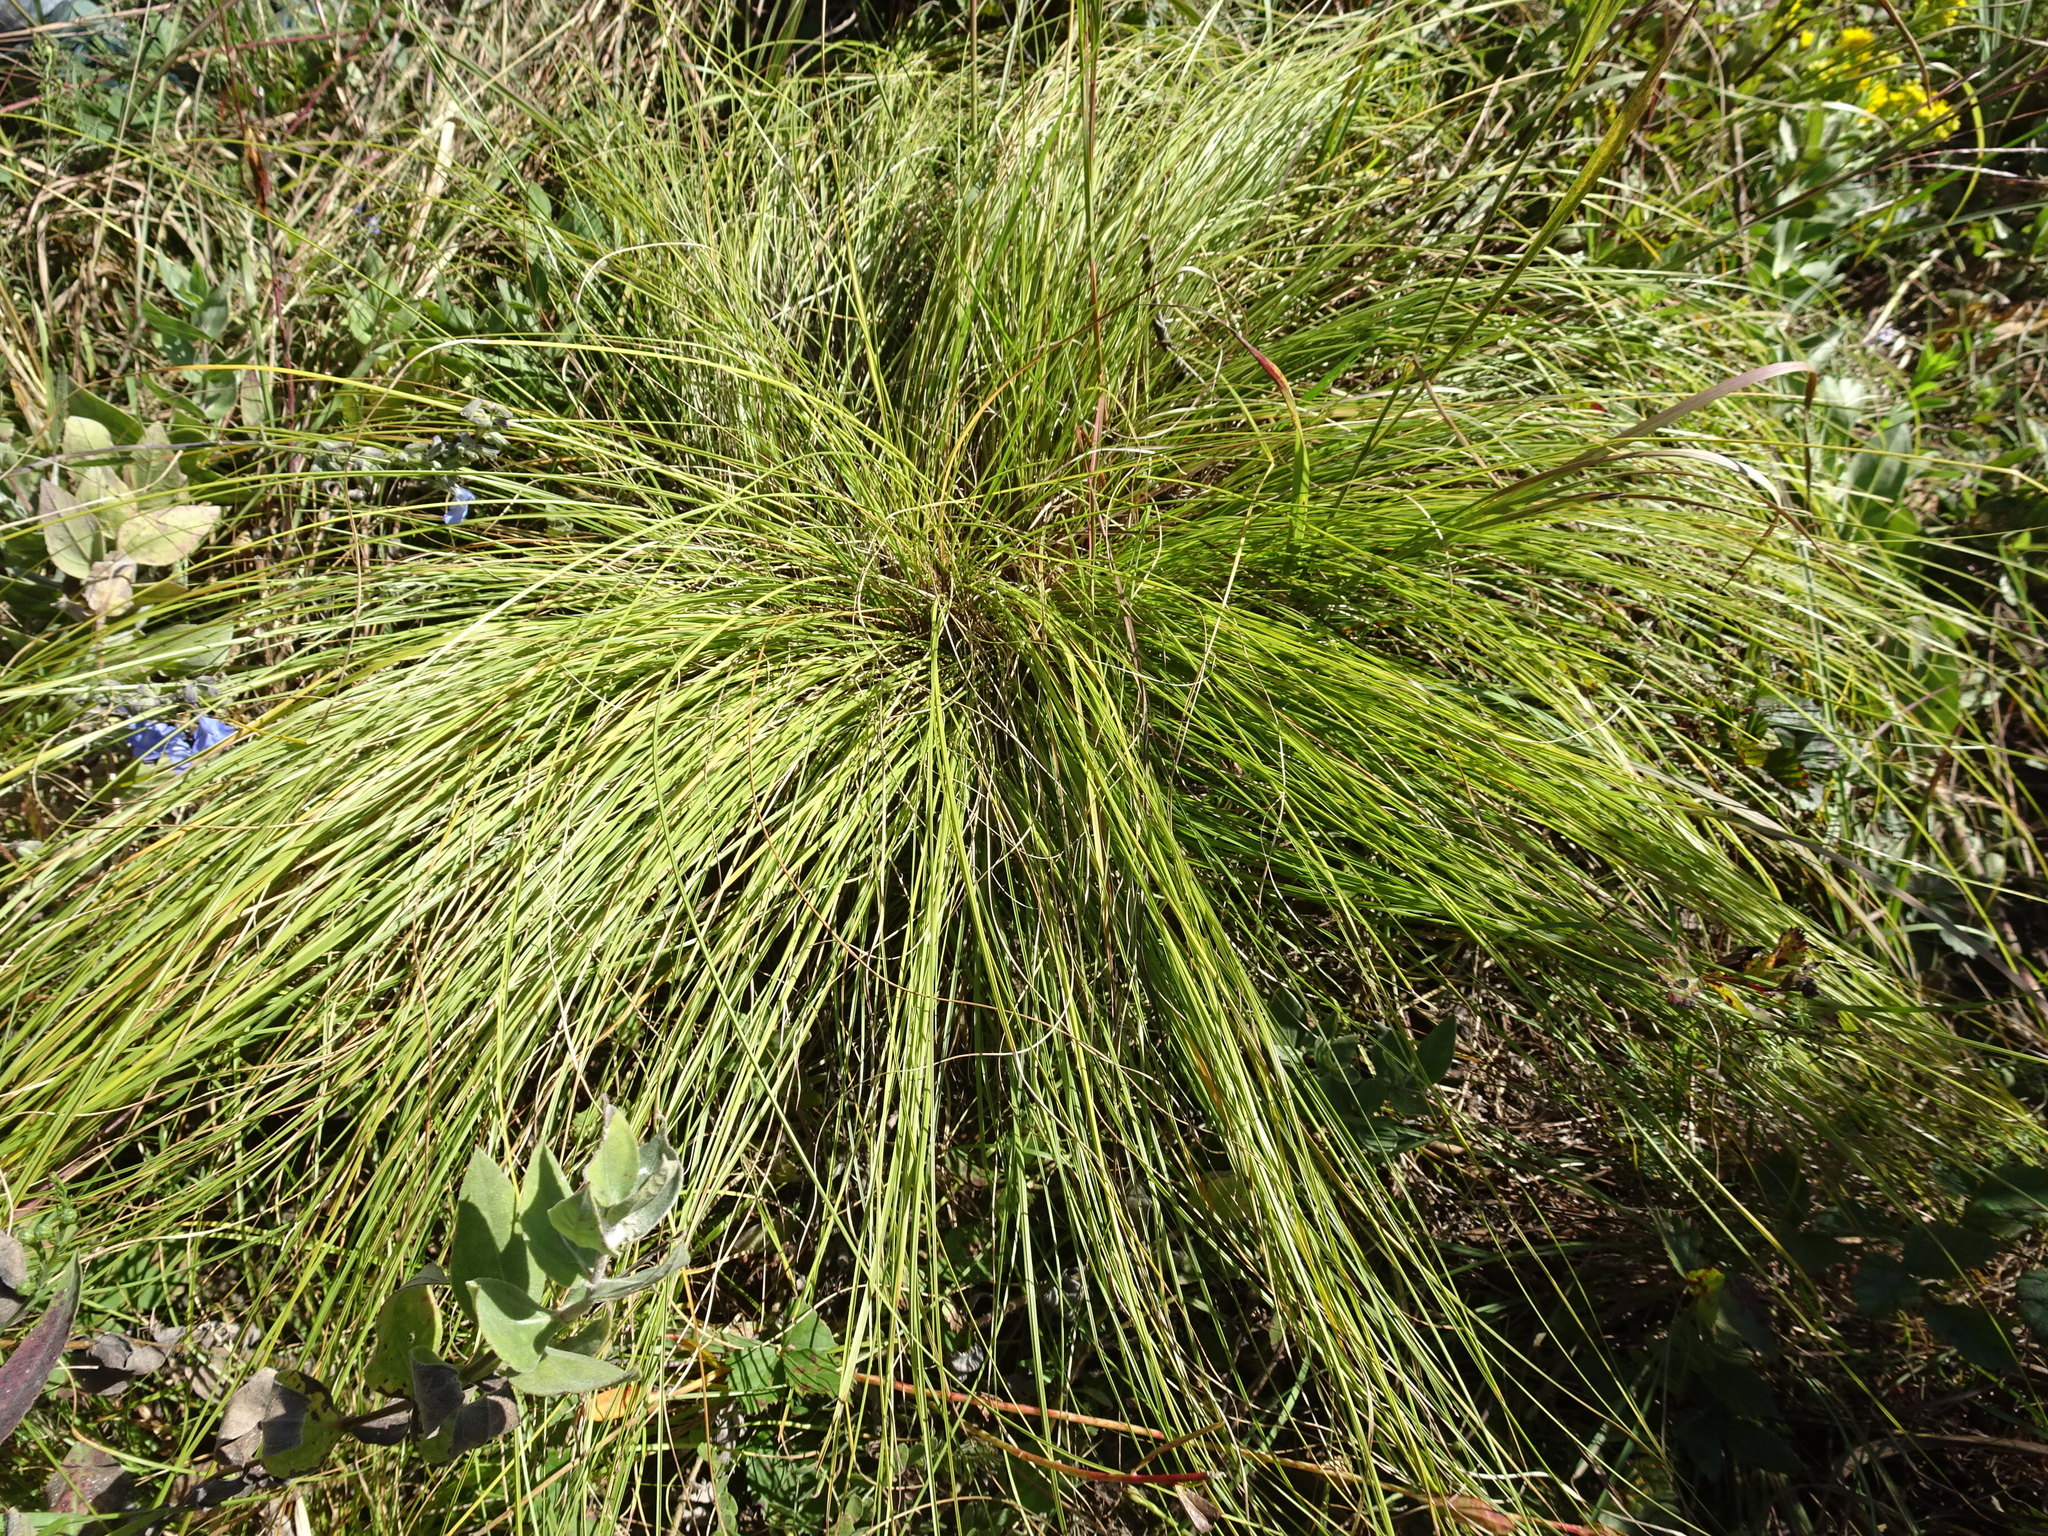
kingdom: Plantae
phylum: Tracheophyta
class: Liliopsida
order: Poales
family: Poaceae
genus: Sporobolus
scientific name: Sporobolus heterolepis
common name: Prairie dropseed
